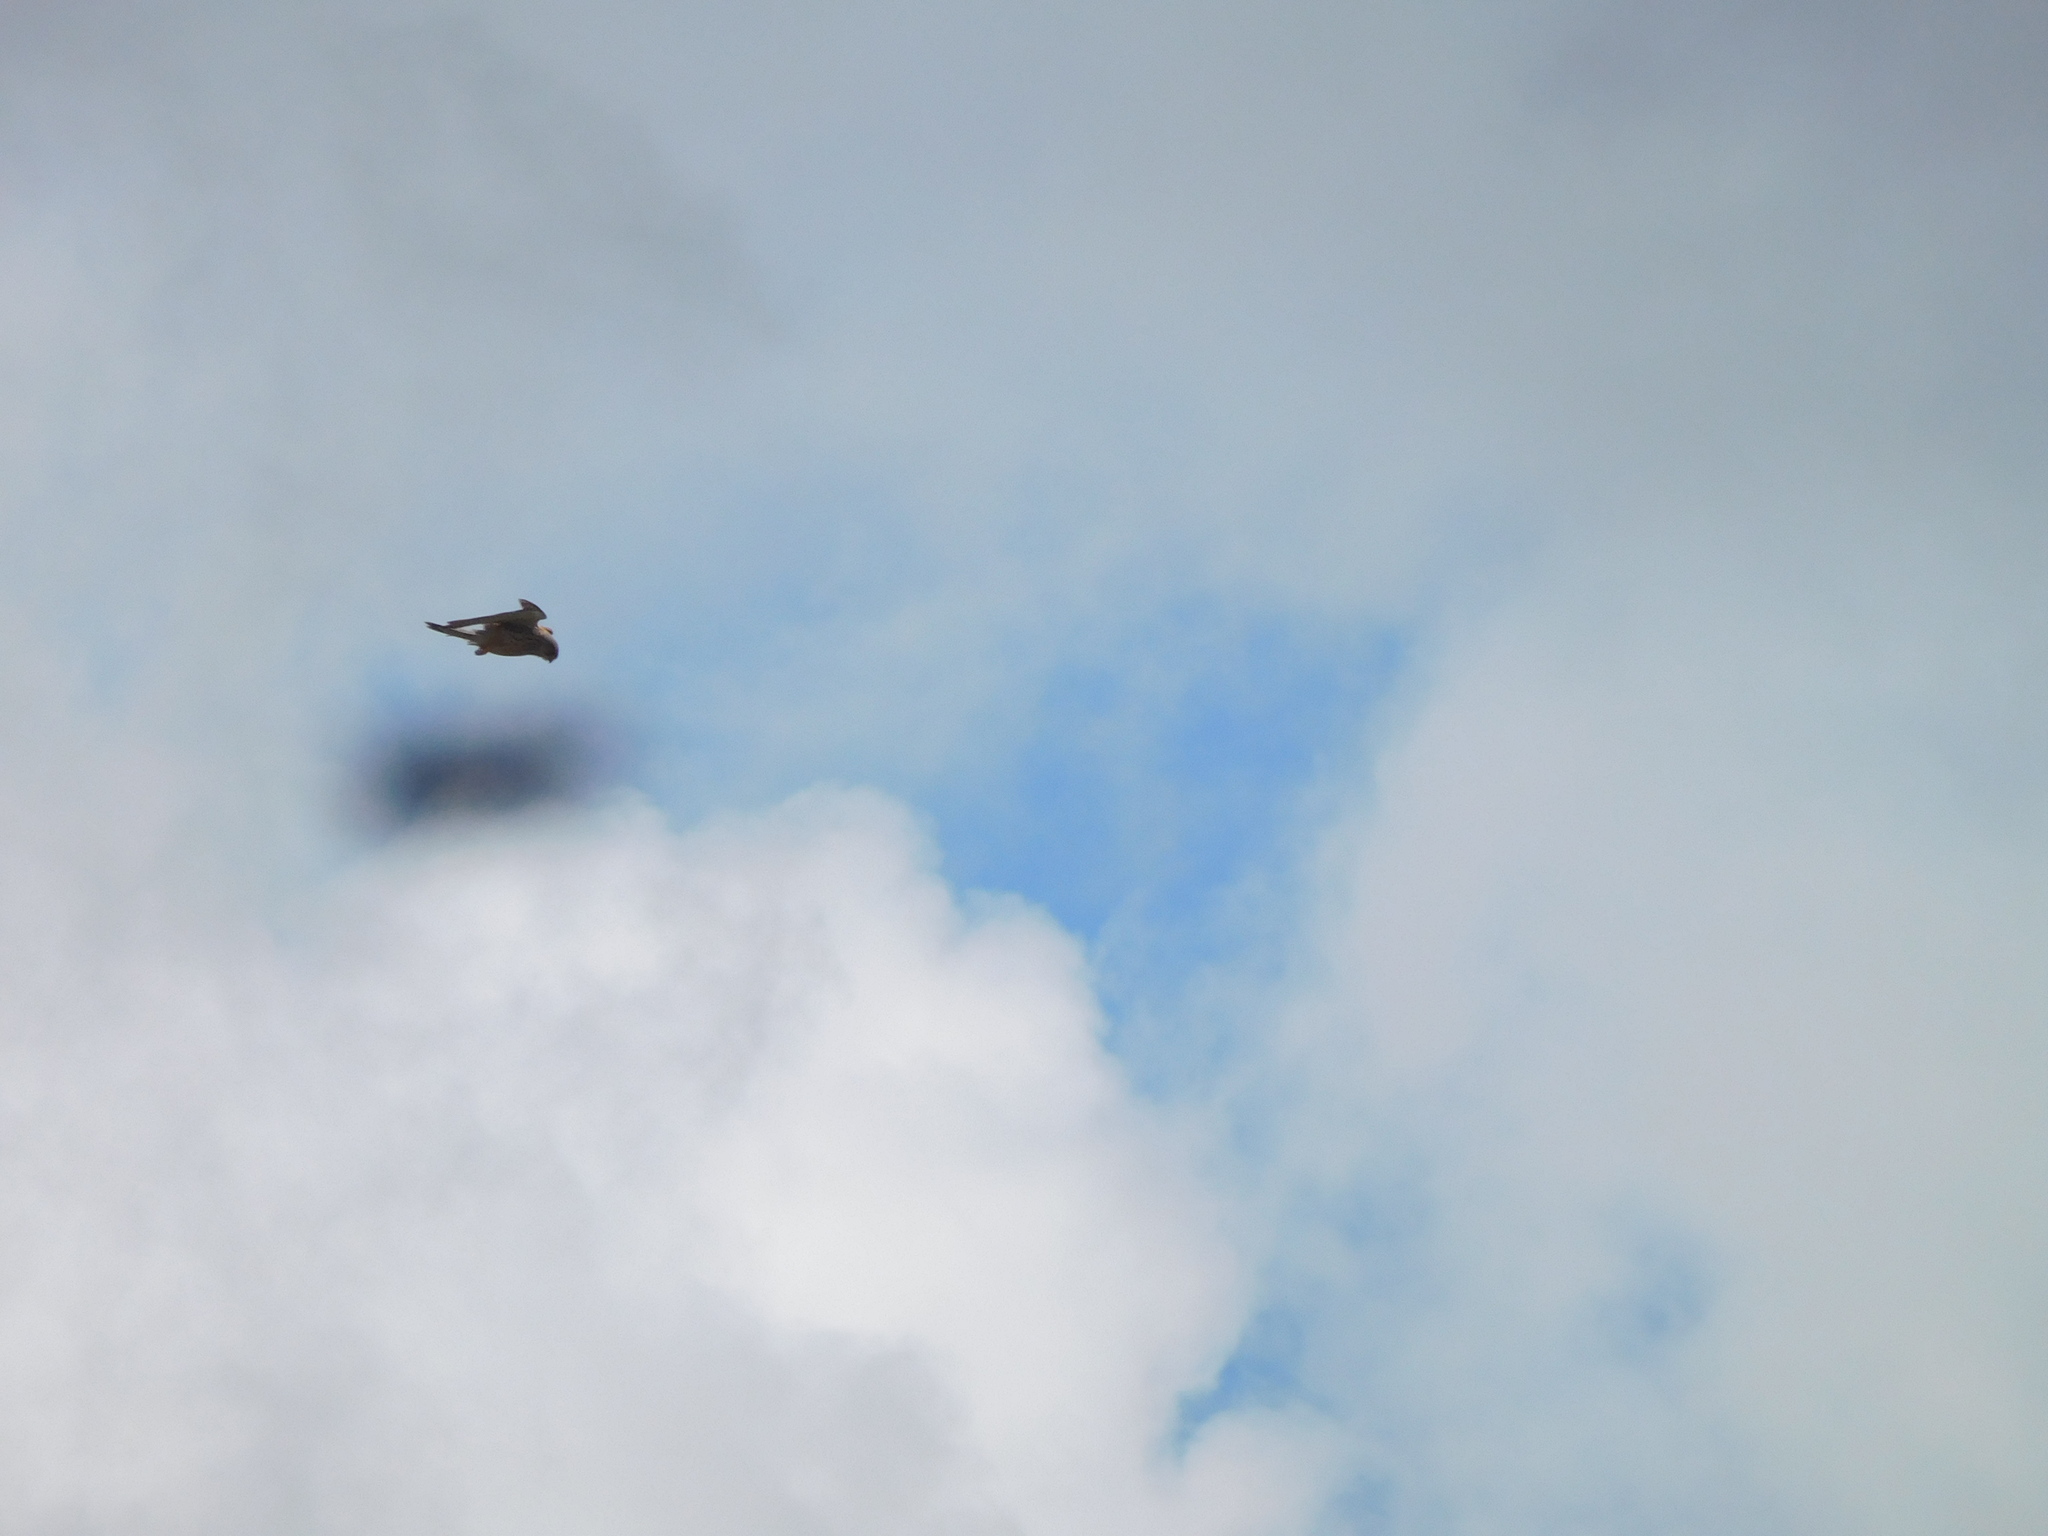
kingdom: Animalia
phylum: Chordata
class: Aves
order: Falconiformes
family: Falconidae
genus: Falco
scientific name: Falco tinnunculus
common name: Common kestrel
